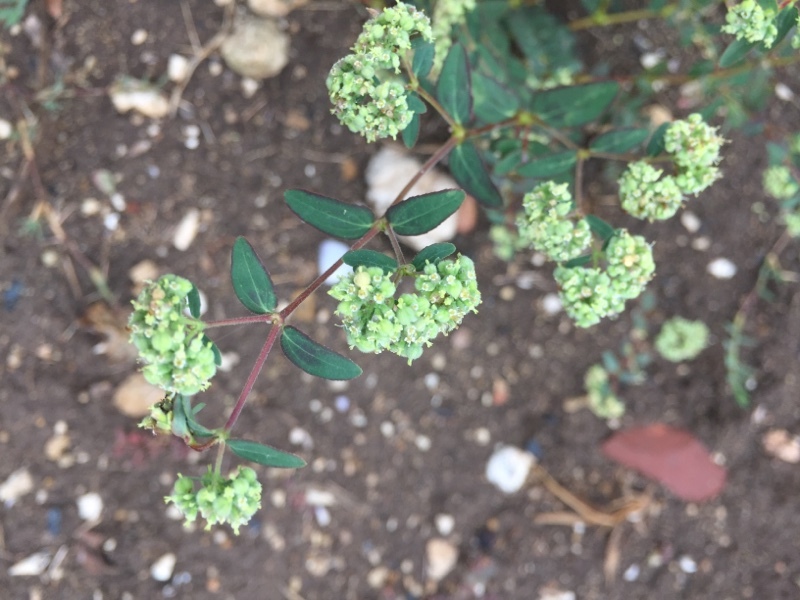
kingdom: Plantae
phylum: Tracheophyta
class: Magnoliopsida
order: Malpighiales
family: Euphorbiaceae
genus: Euphorbia
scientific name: Euphorbia lasiocarpa
